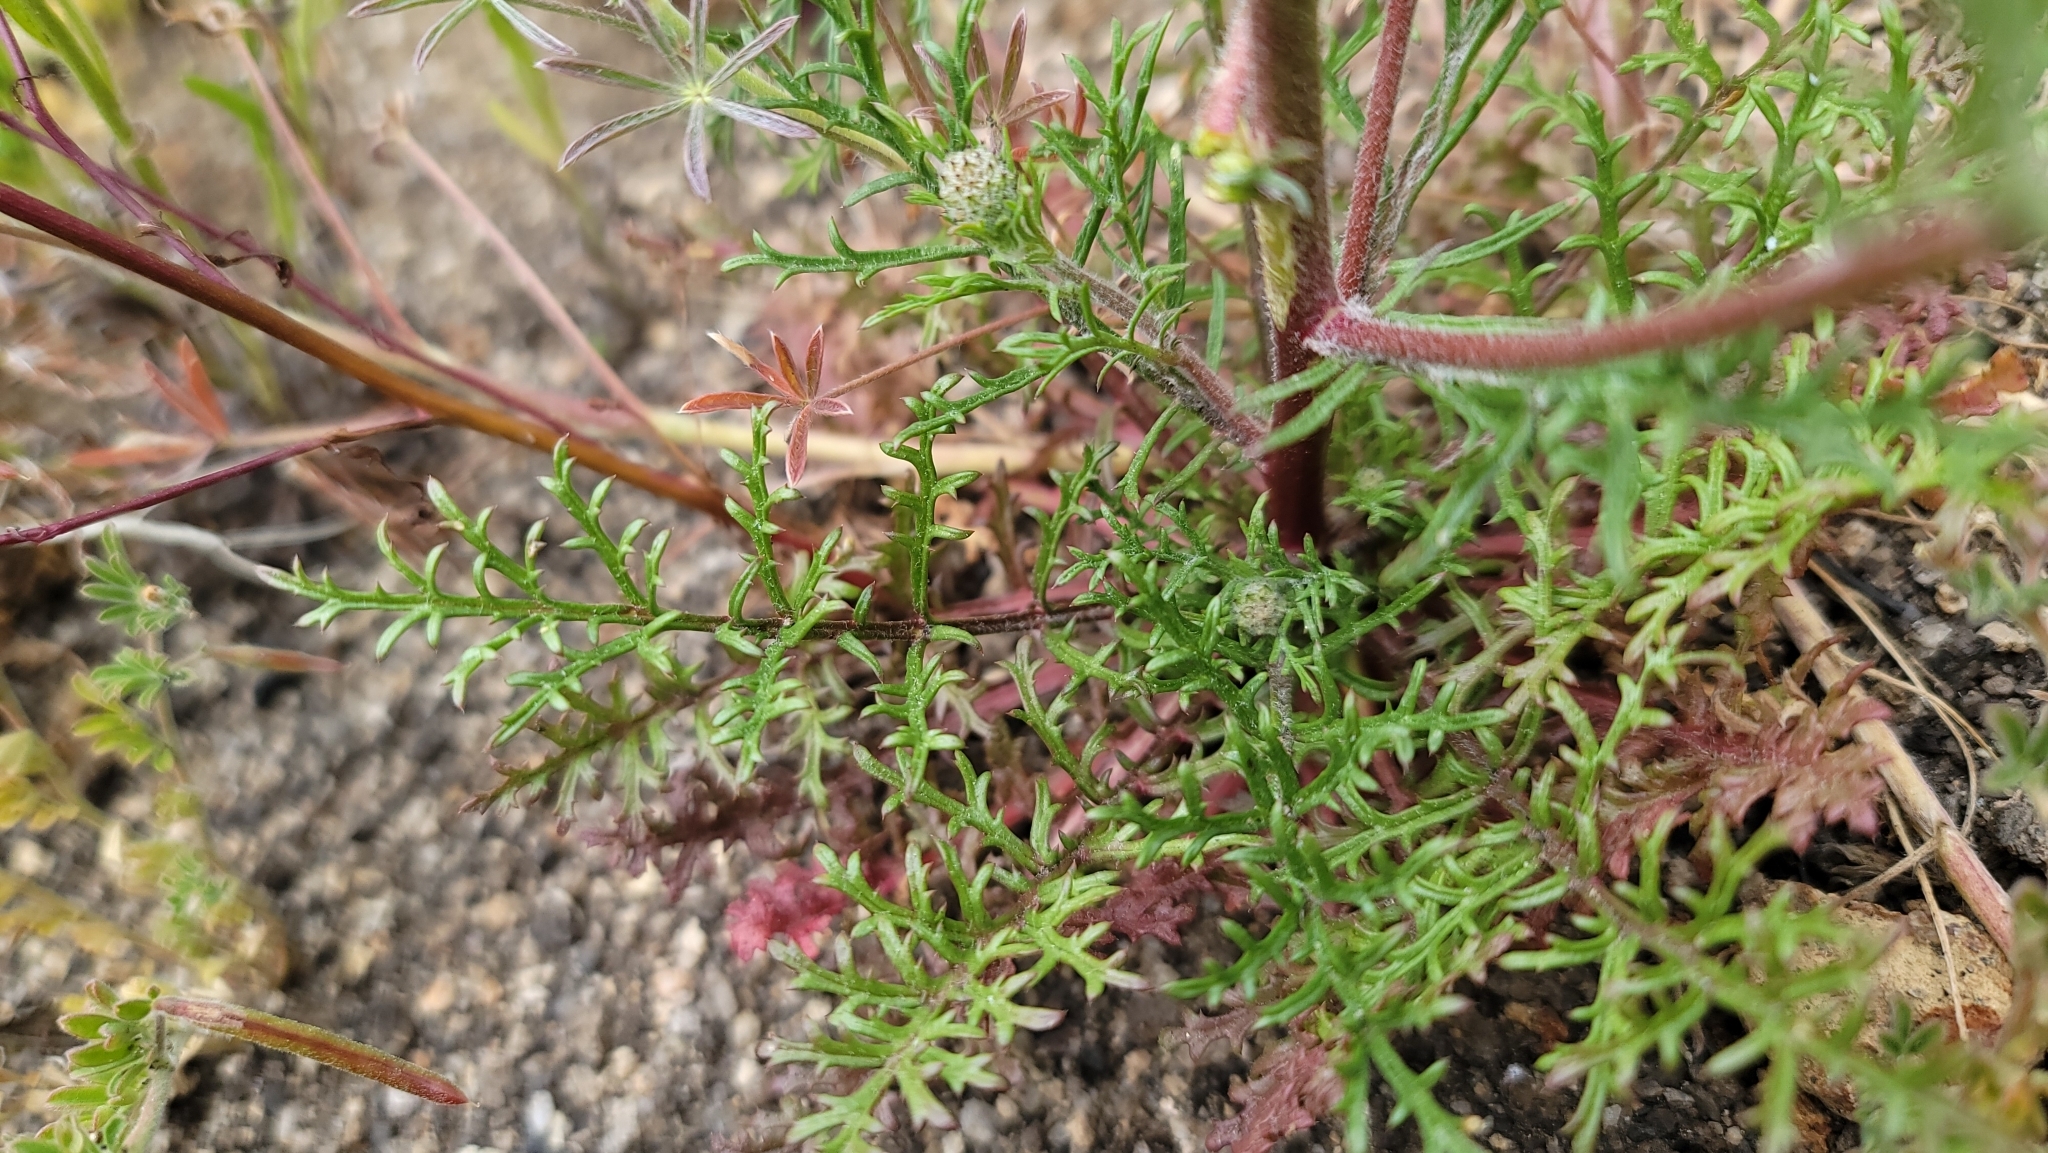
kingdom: Plantae
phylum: Tracheophyta
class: Magnoliopsida
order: Ericales
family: Polemoniaceae
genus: Gilia
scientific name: Gilia capitata
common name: Bluehead gilia
